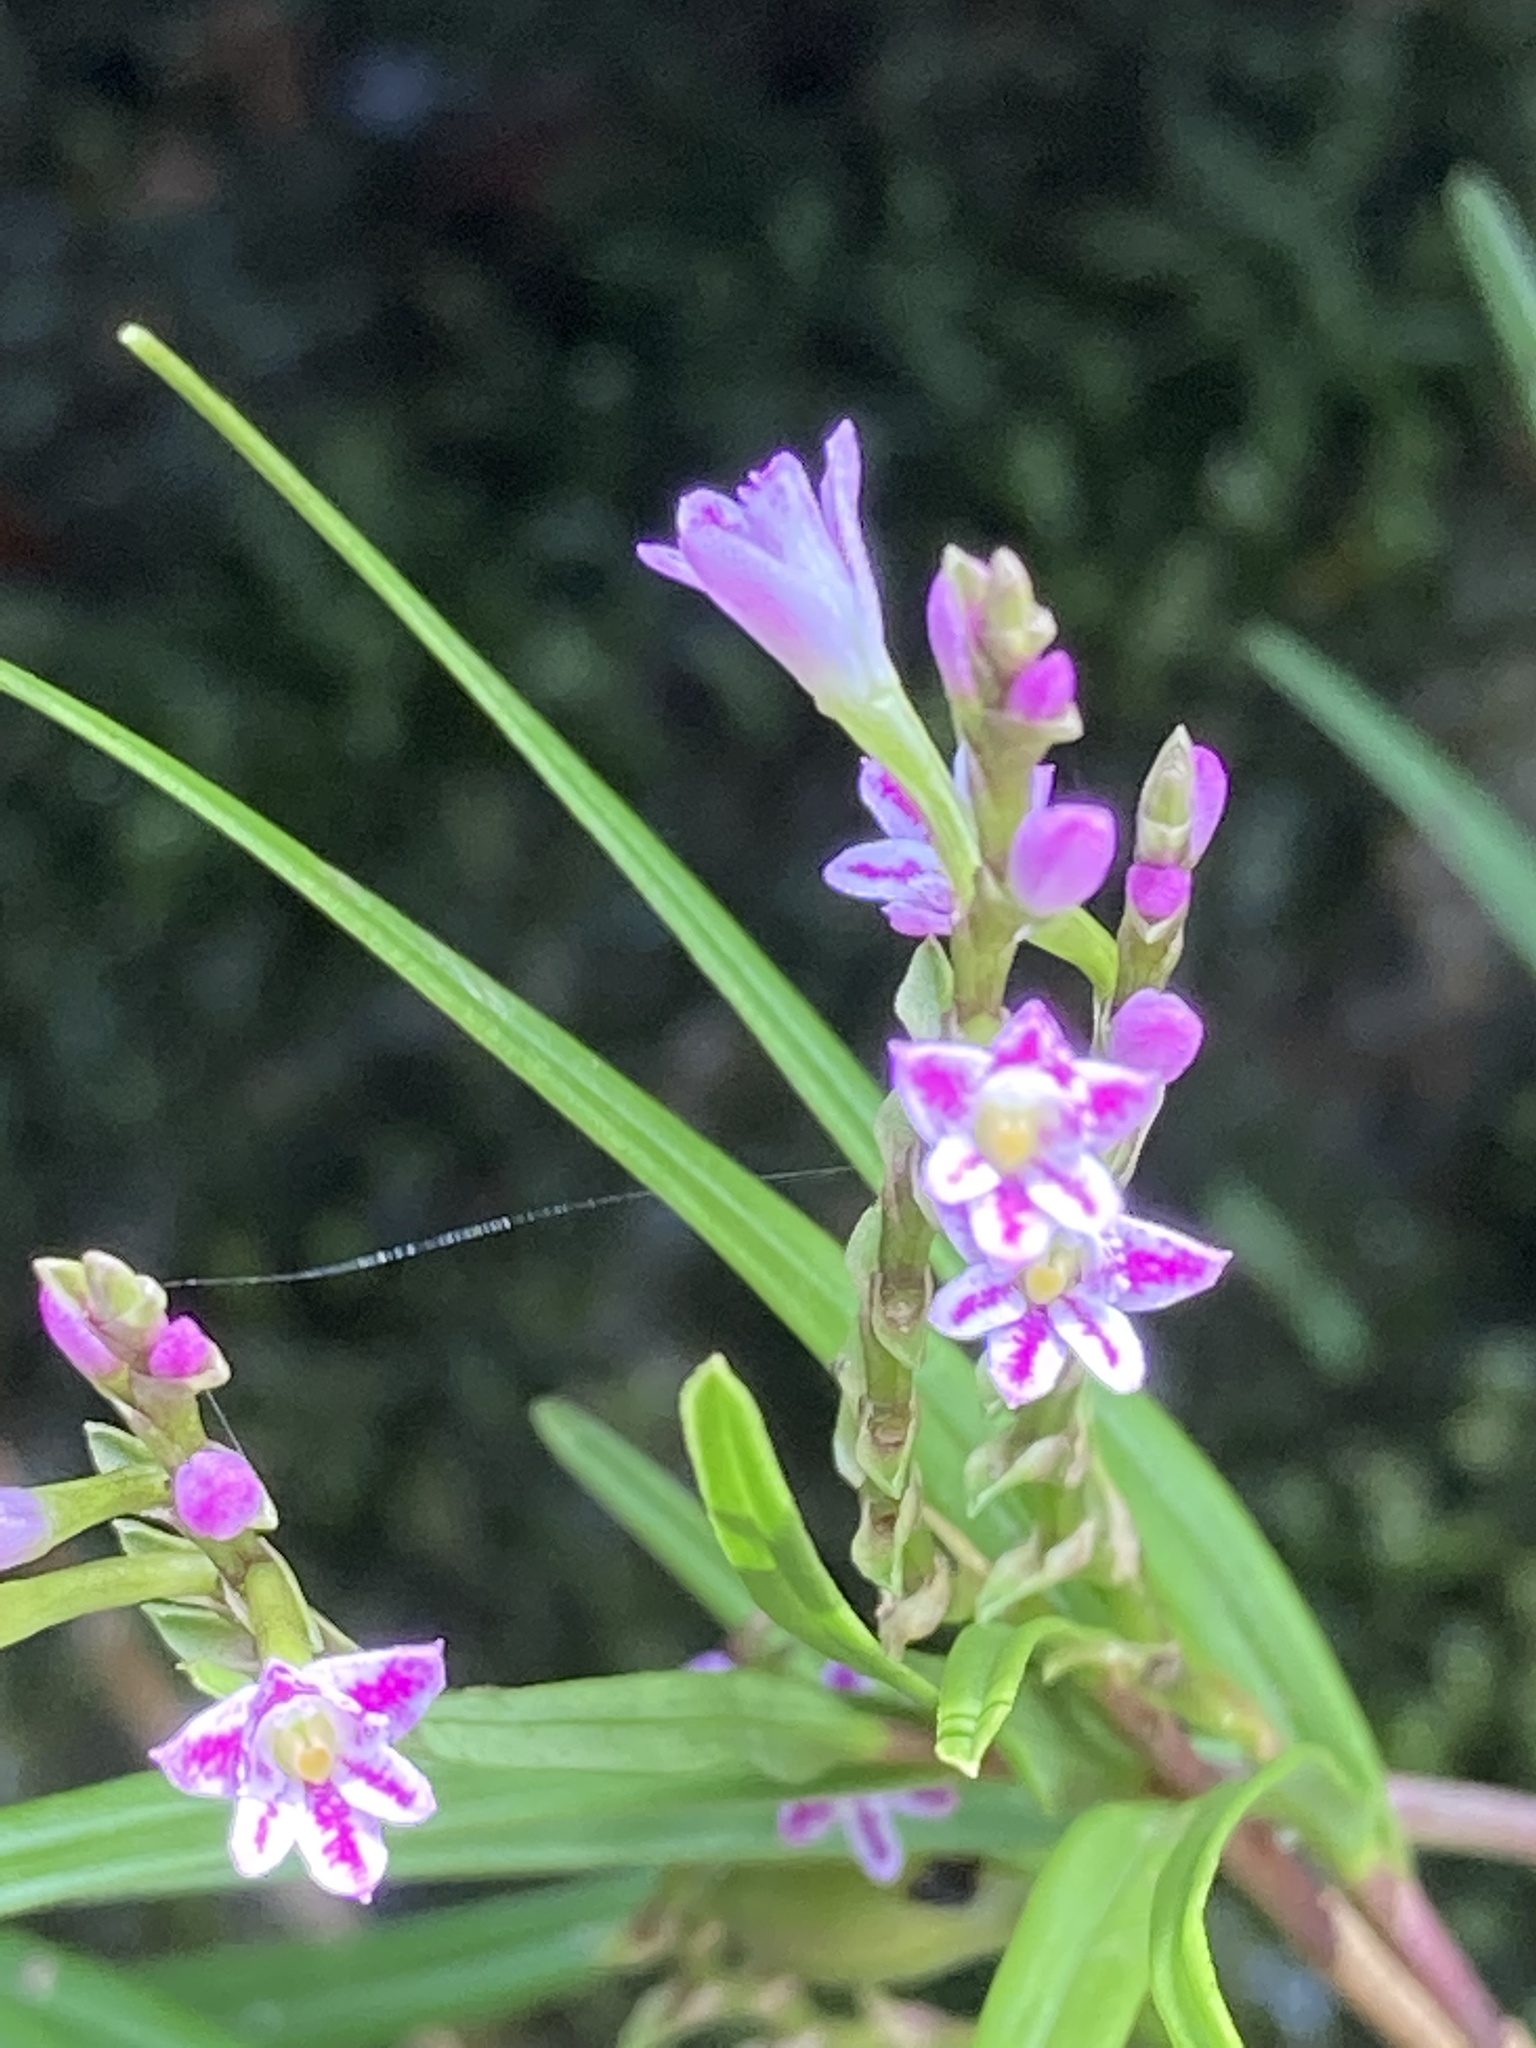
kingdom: Plantae
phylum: Tracheophyta
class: Liliopsida
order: Asparagales
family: Orchidaceae
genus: Epidendrum
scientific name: Epidendrum fimbriatum
